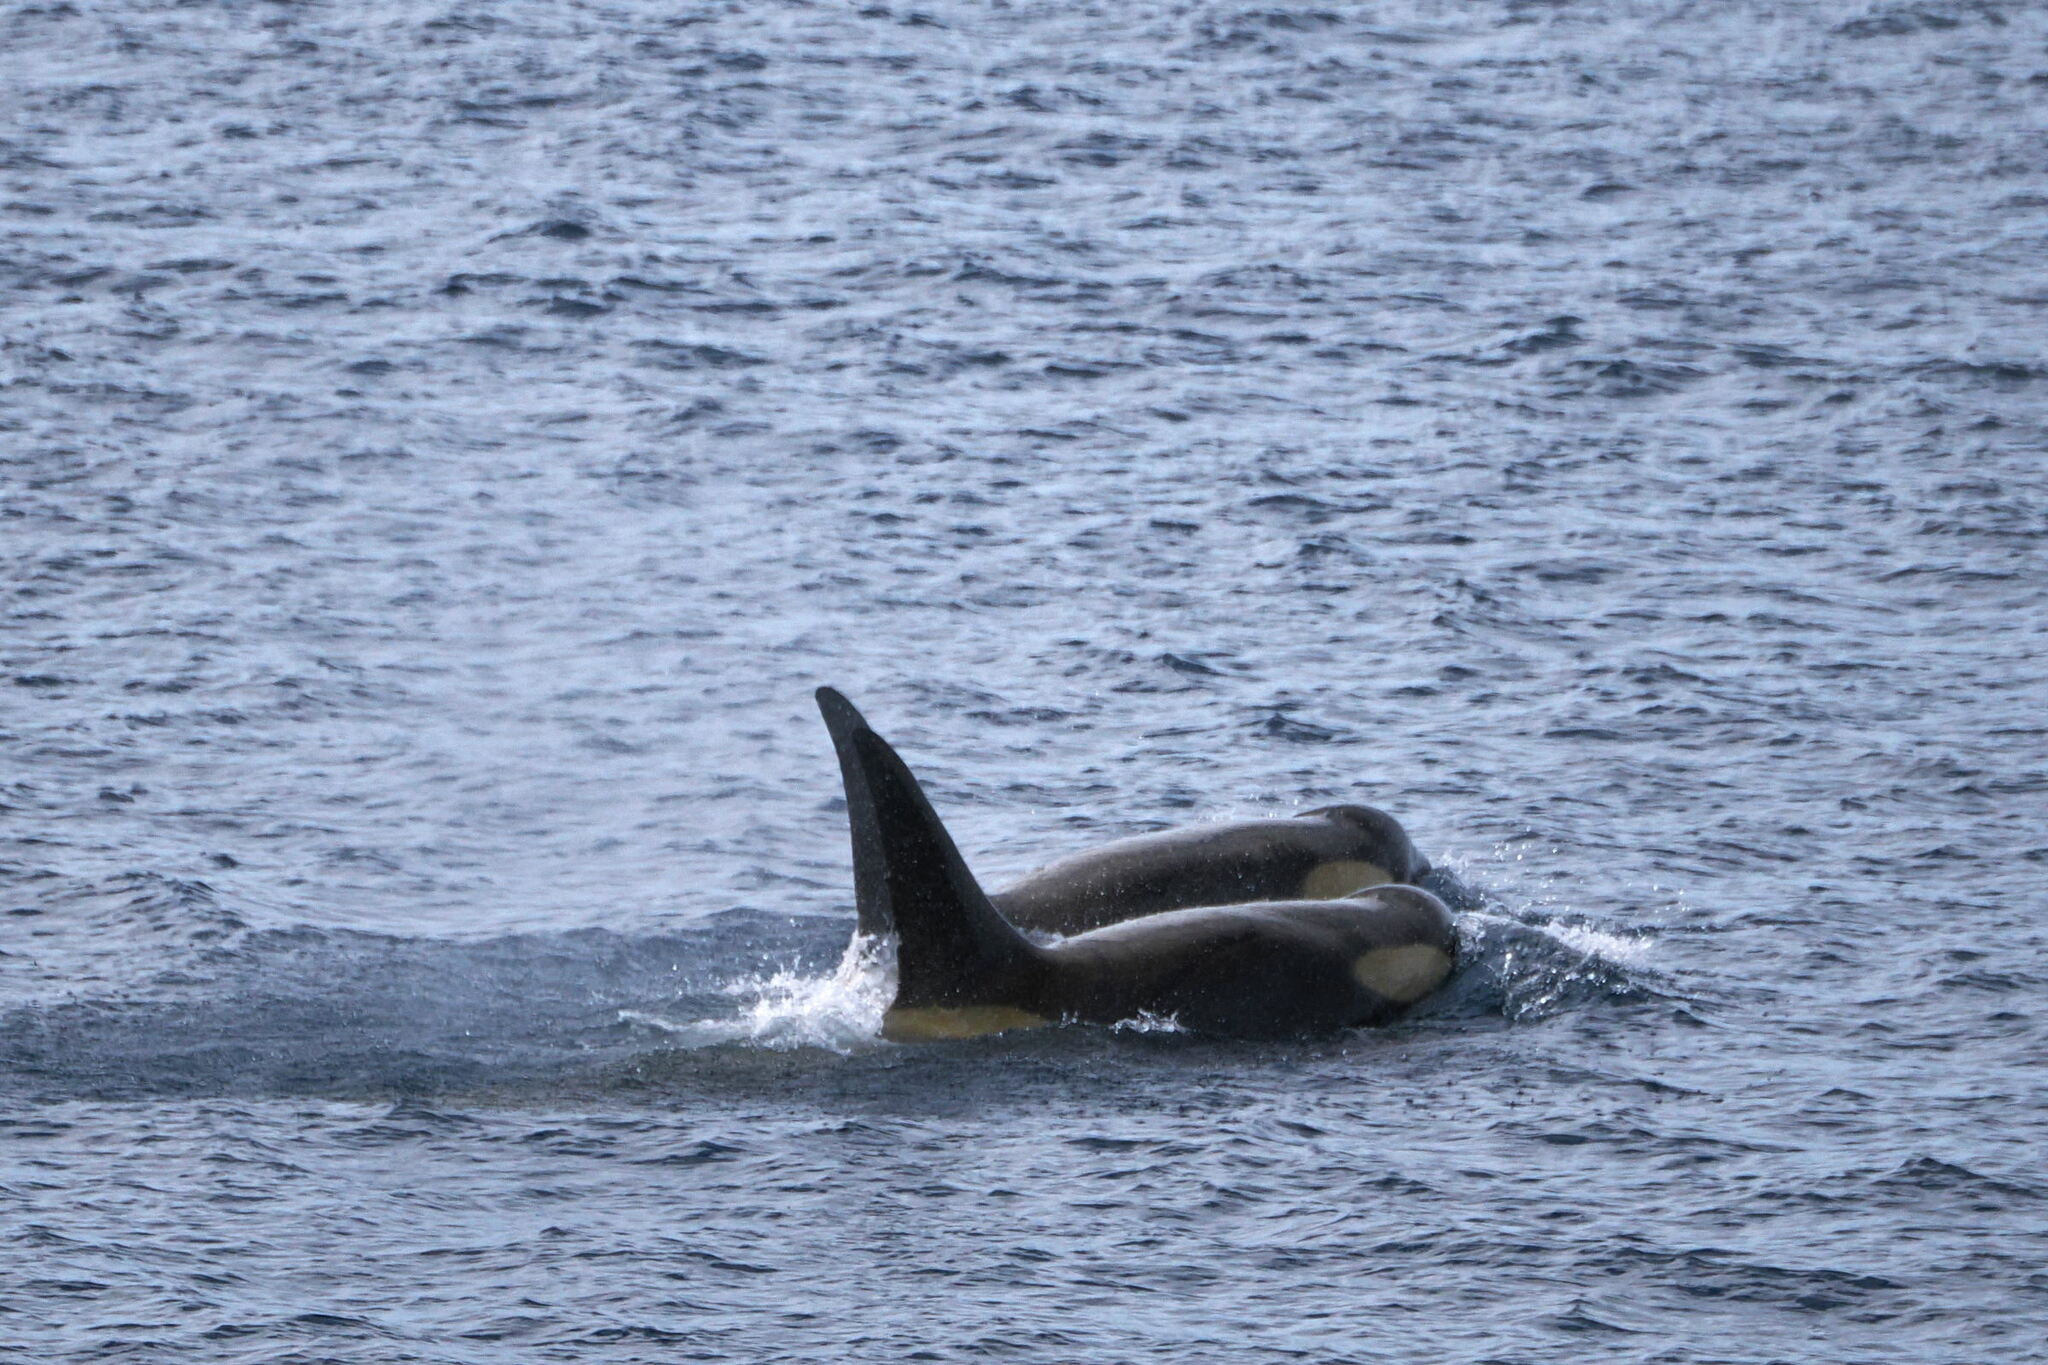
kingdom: Animalia
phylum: Chordata
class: Mammalia
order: Cetacea
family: Delphinidae
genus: Orcinus
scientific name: Orcinus orca
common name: Killer whale
